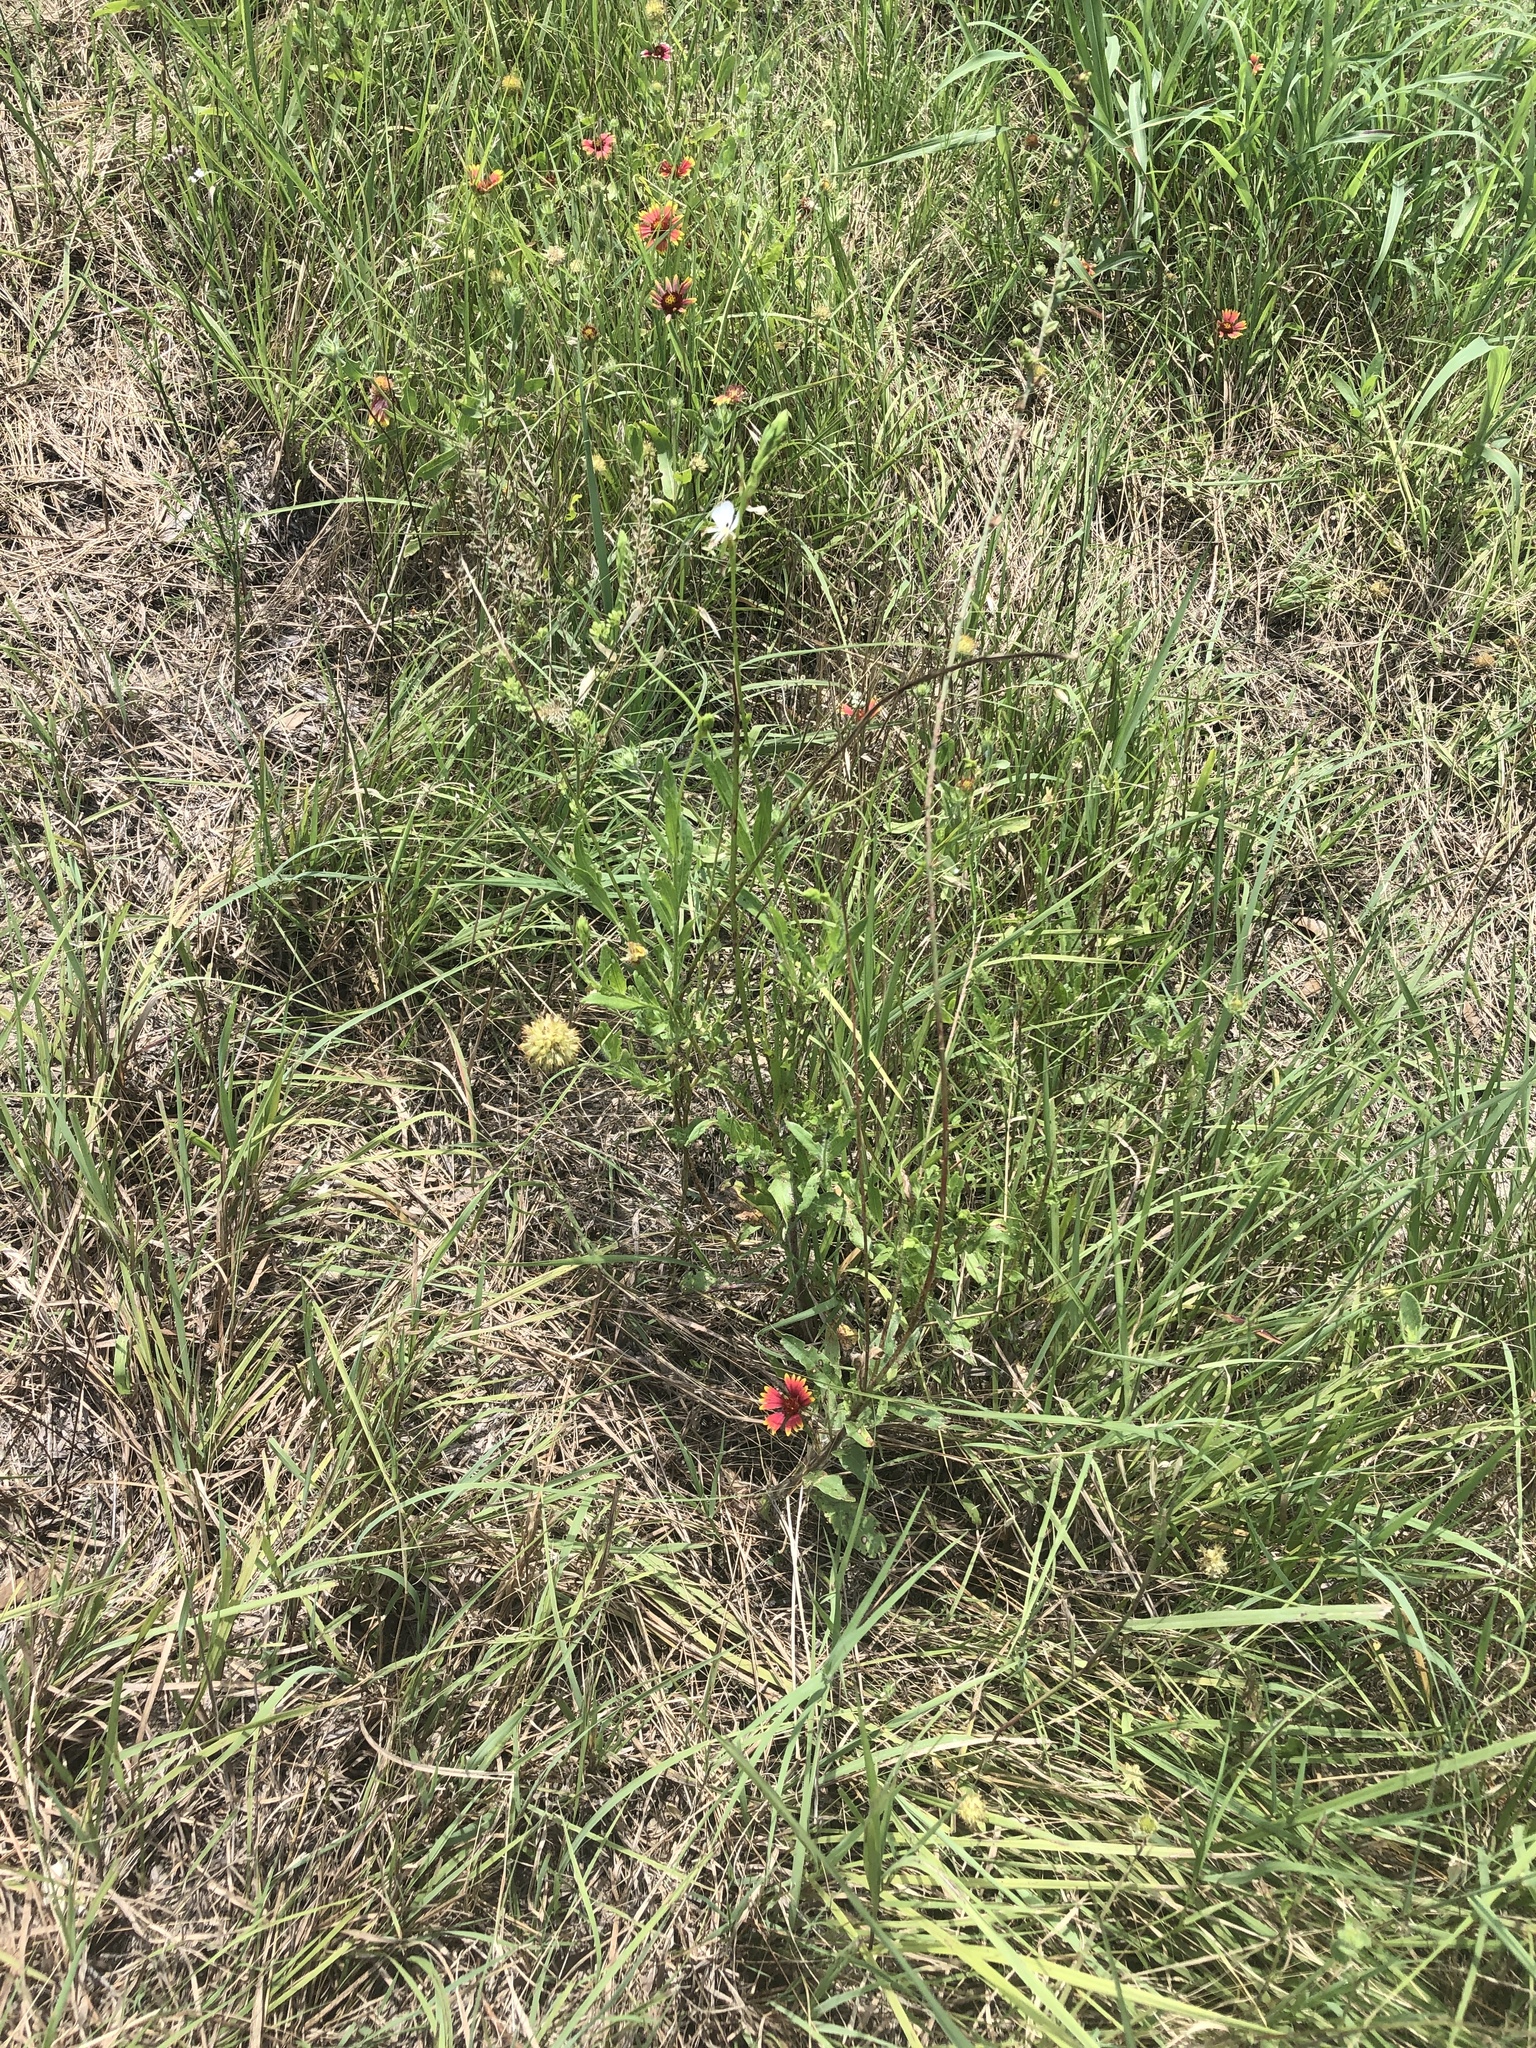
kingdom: Plantae
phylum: Tracheophyta
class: Magnoliopsida
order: Myrtales
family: Onagraceae
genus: Oenothera
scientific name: Oenothera suffulta
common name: Kisses
